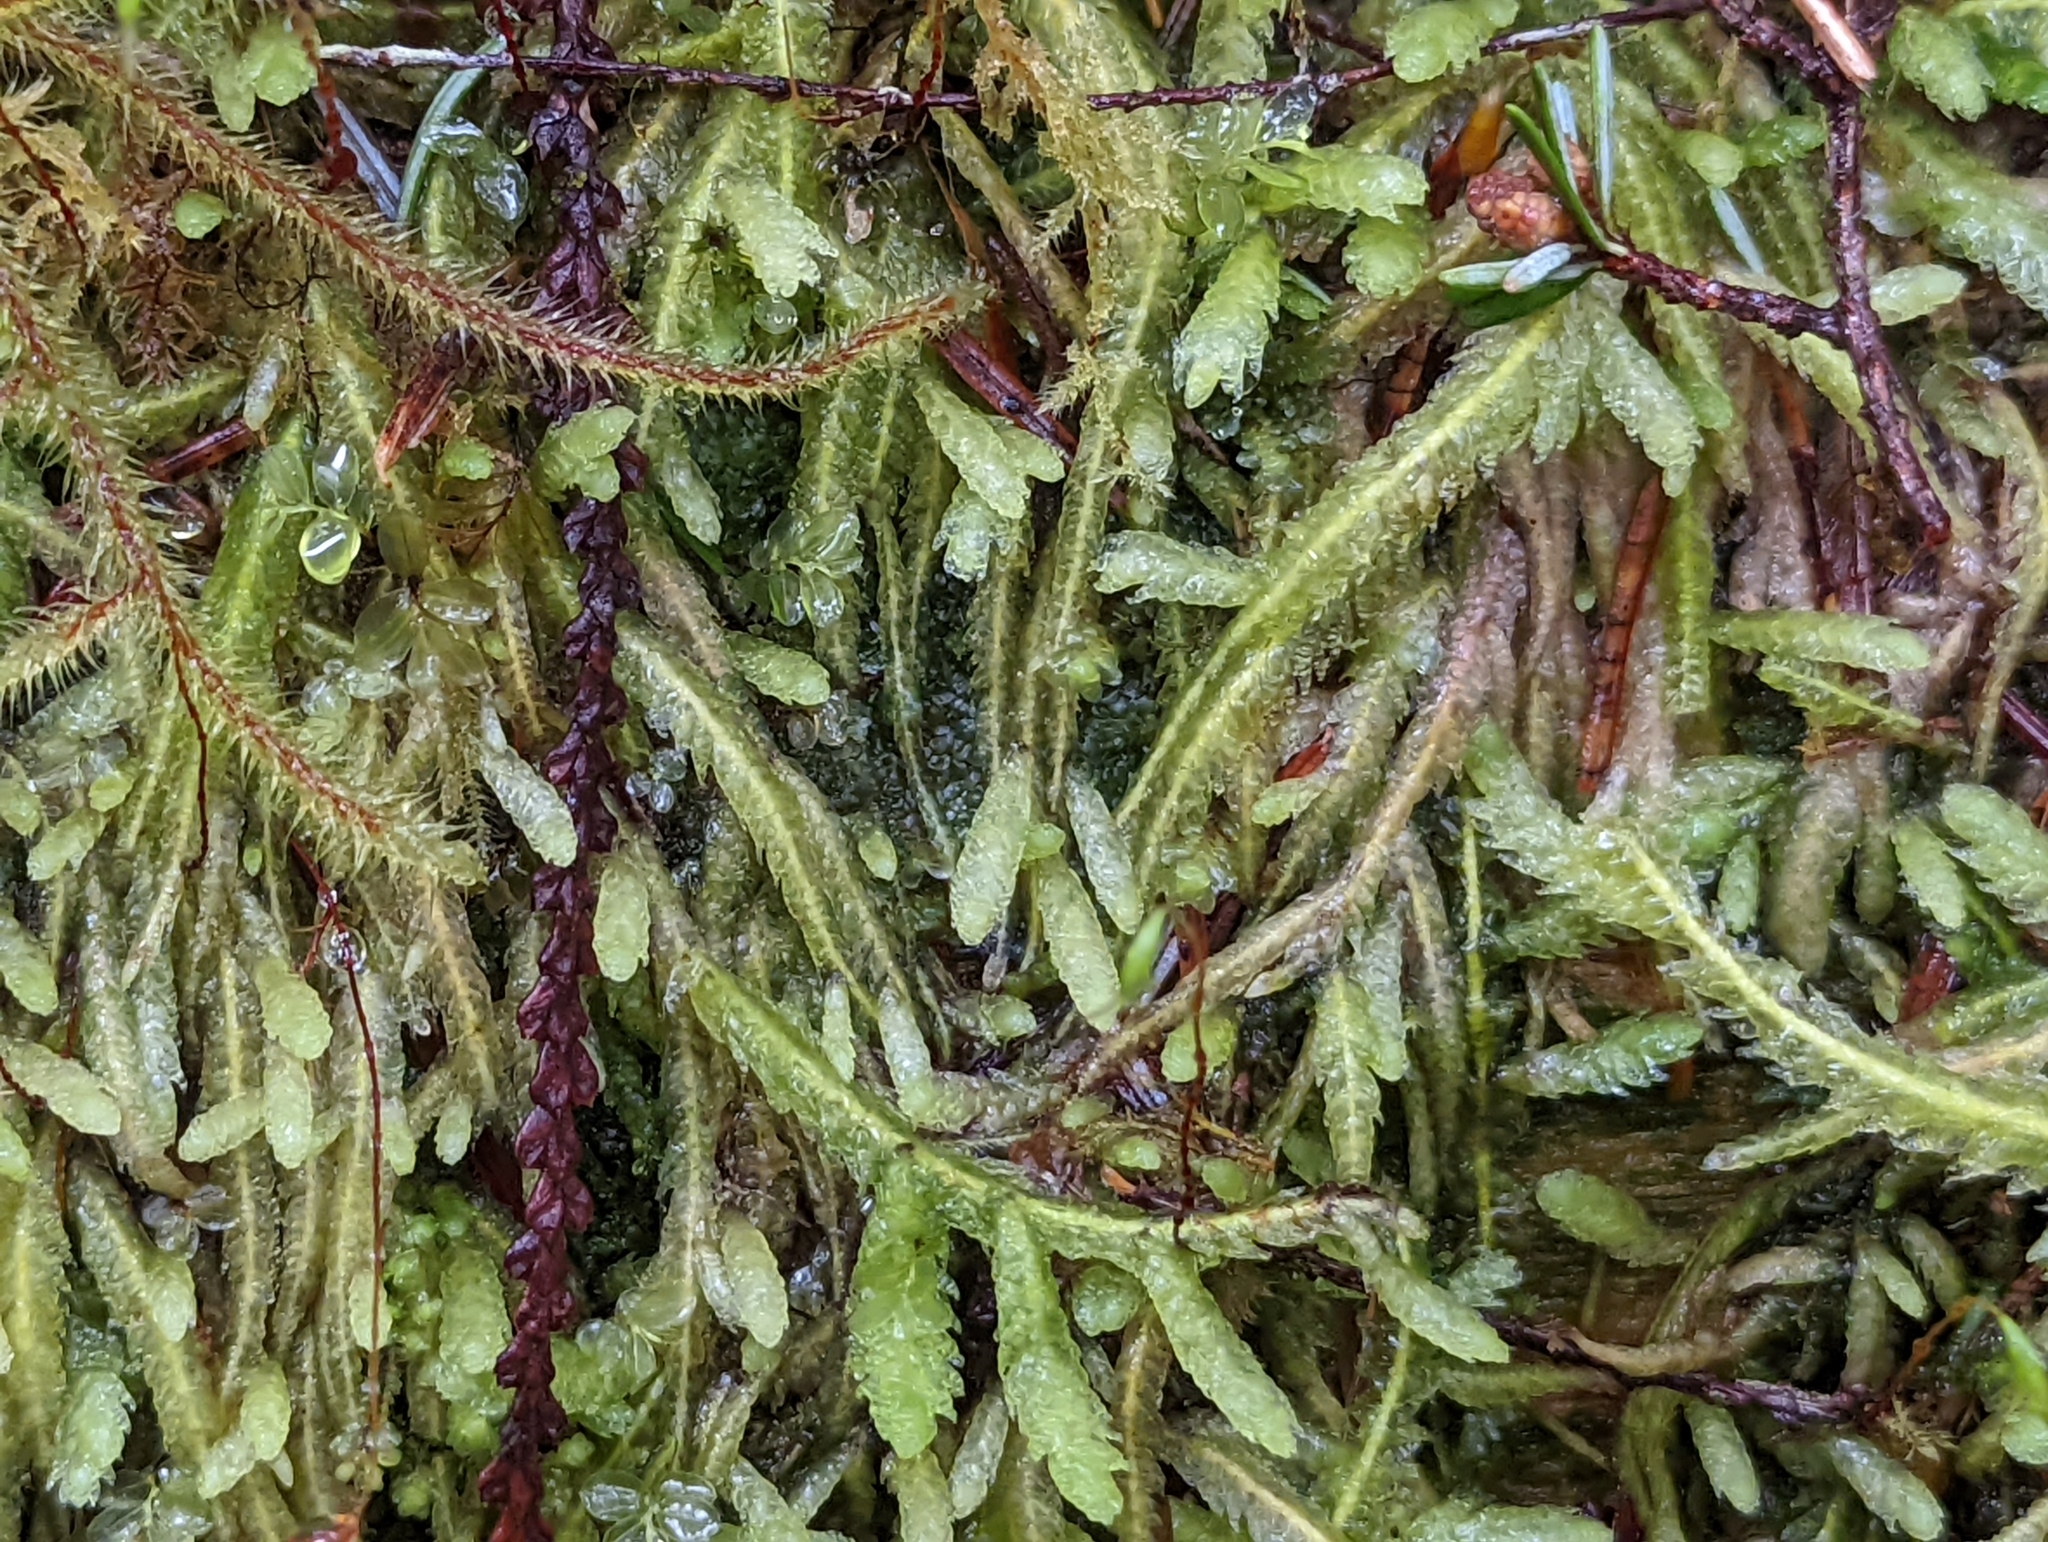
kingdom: Plantae
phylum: Bryophyta
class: Bryopsida
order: Hypnales
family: Plagiotheciaceae
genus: Plagiothecium
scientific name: Plagiothecium undulatum
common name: Waved silk-moss
